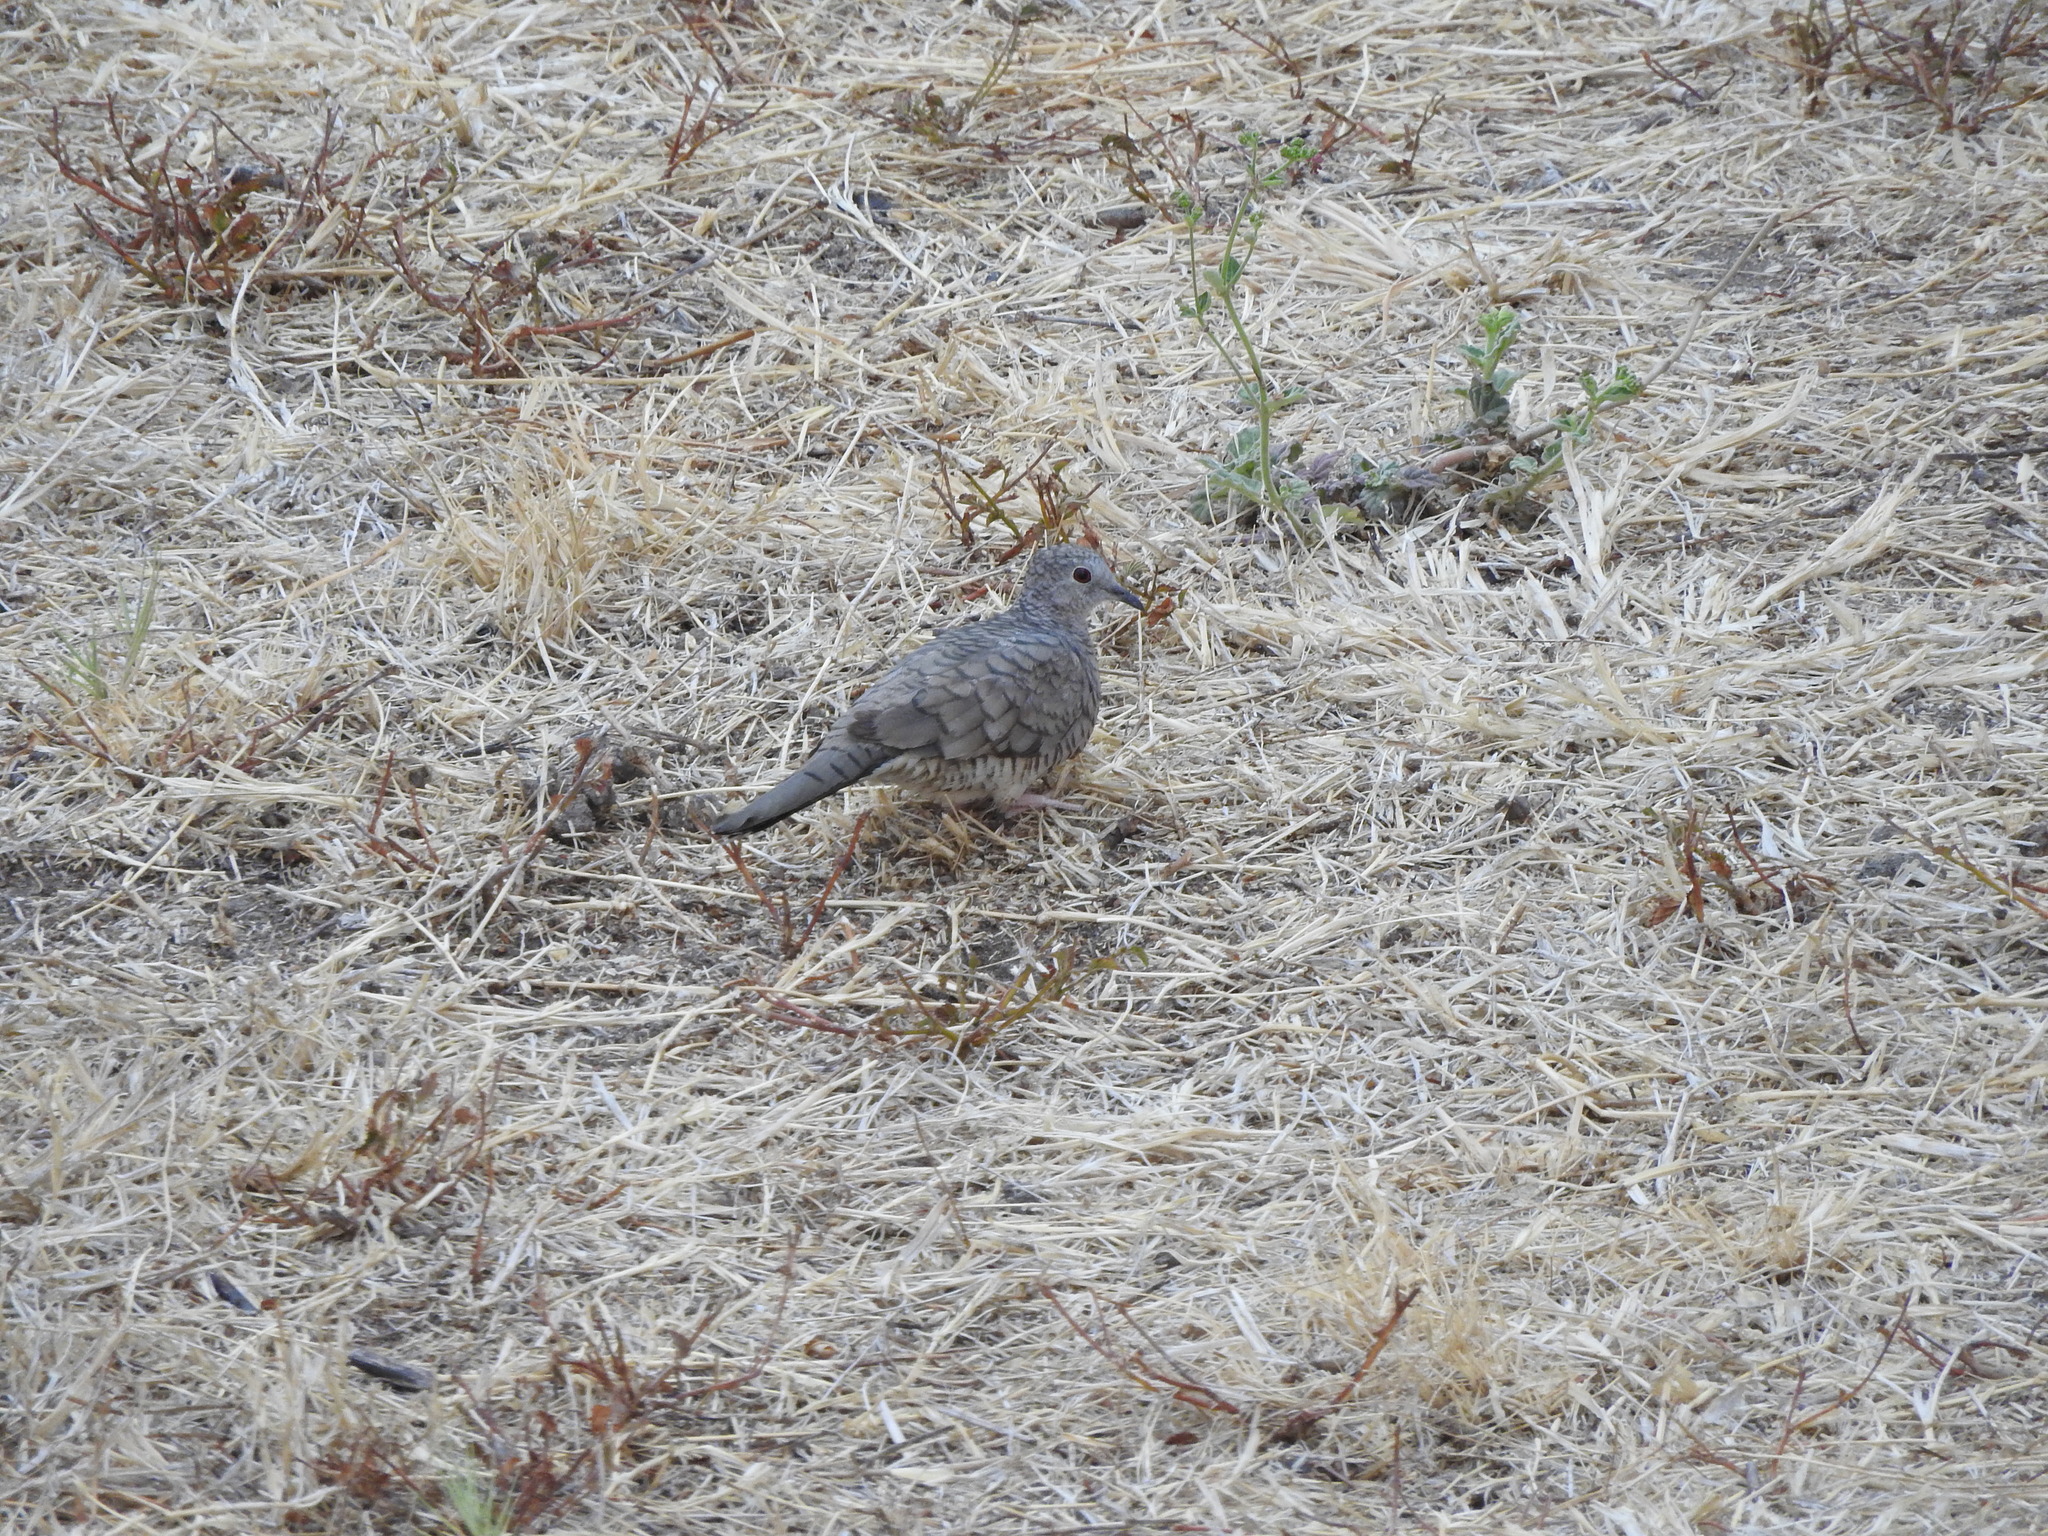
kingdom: Animalia
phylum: Chordata
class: Aves
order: Columbiformes
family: Columbidae
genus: Columbina
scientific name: Columbina inca
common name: Inca dove
